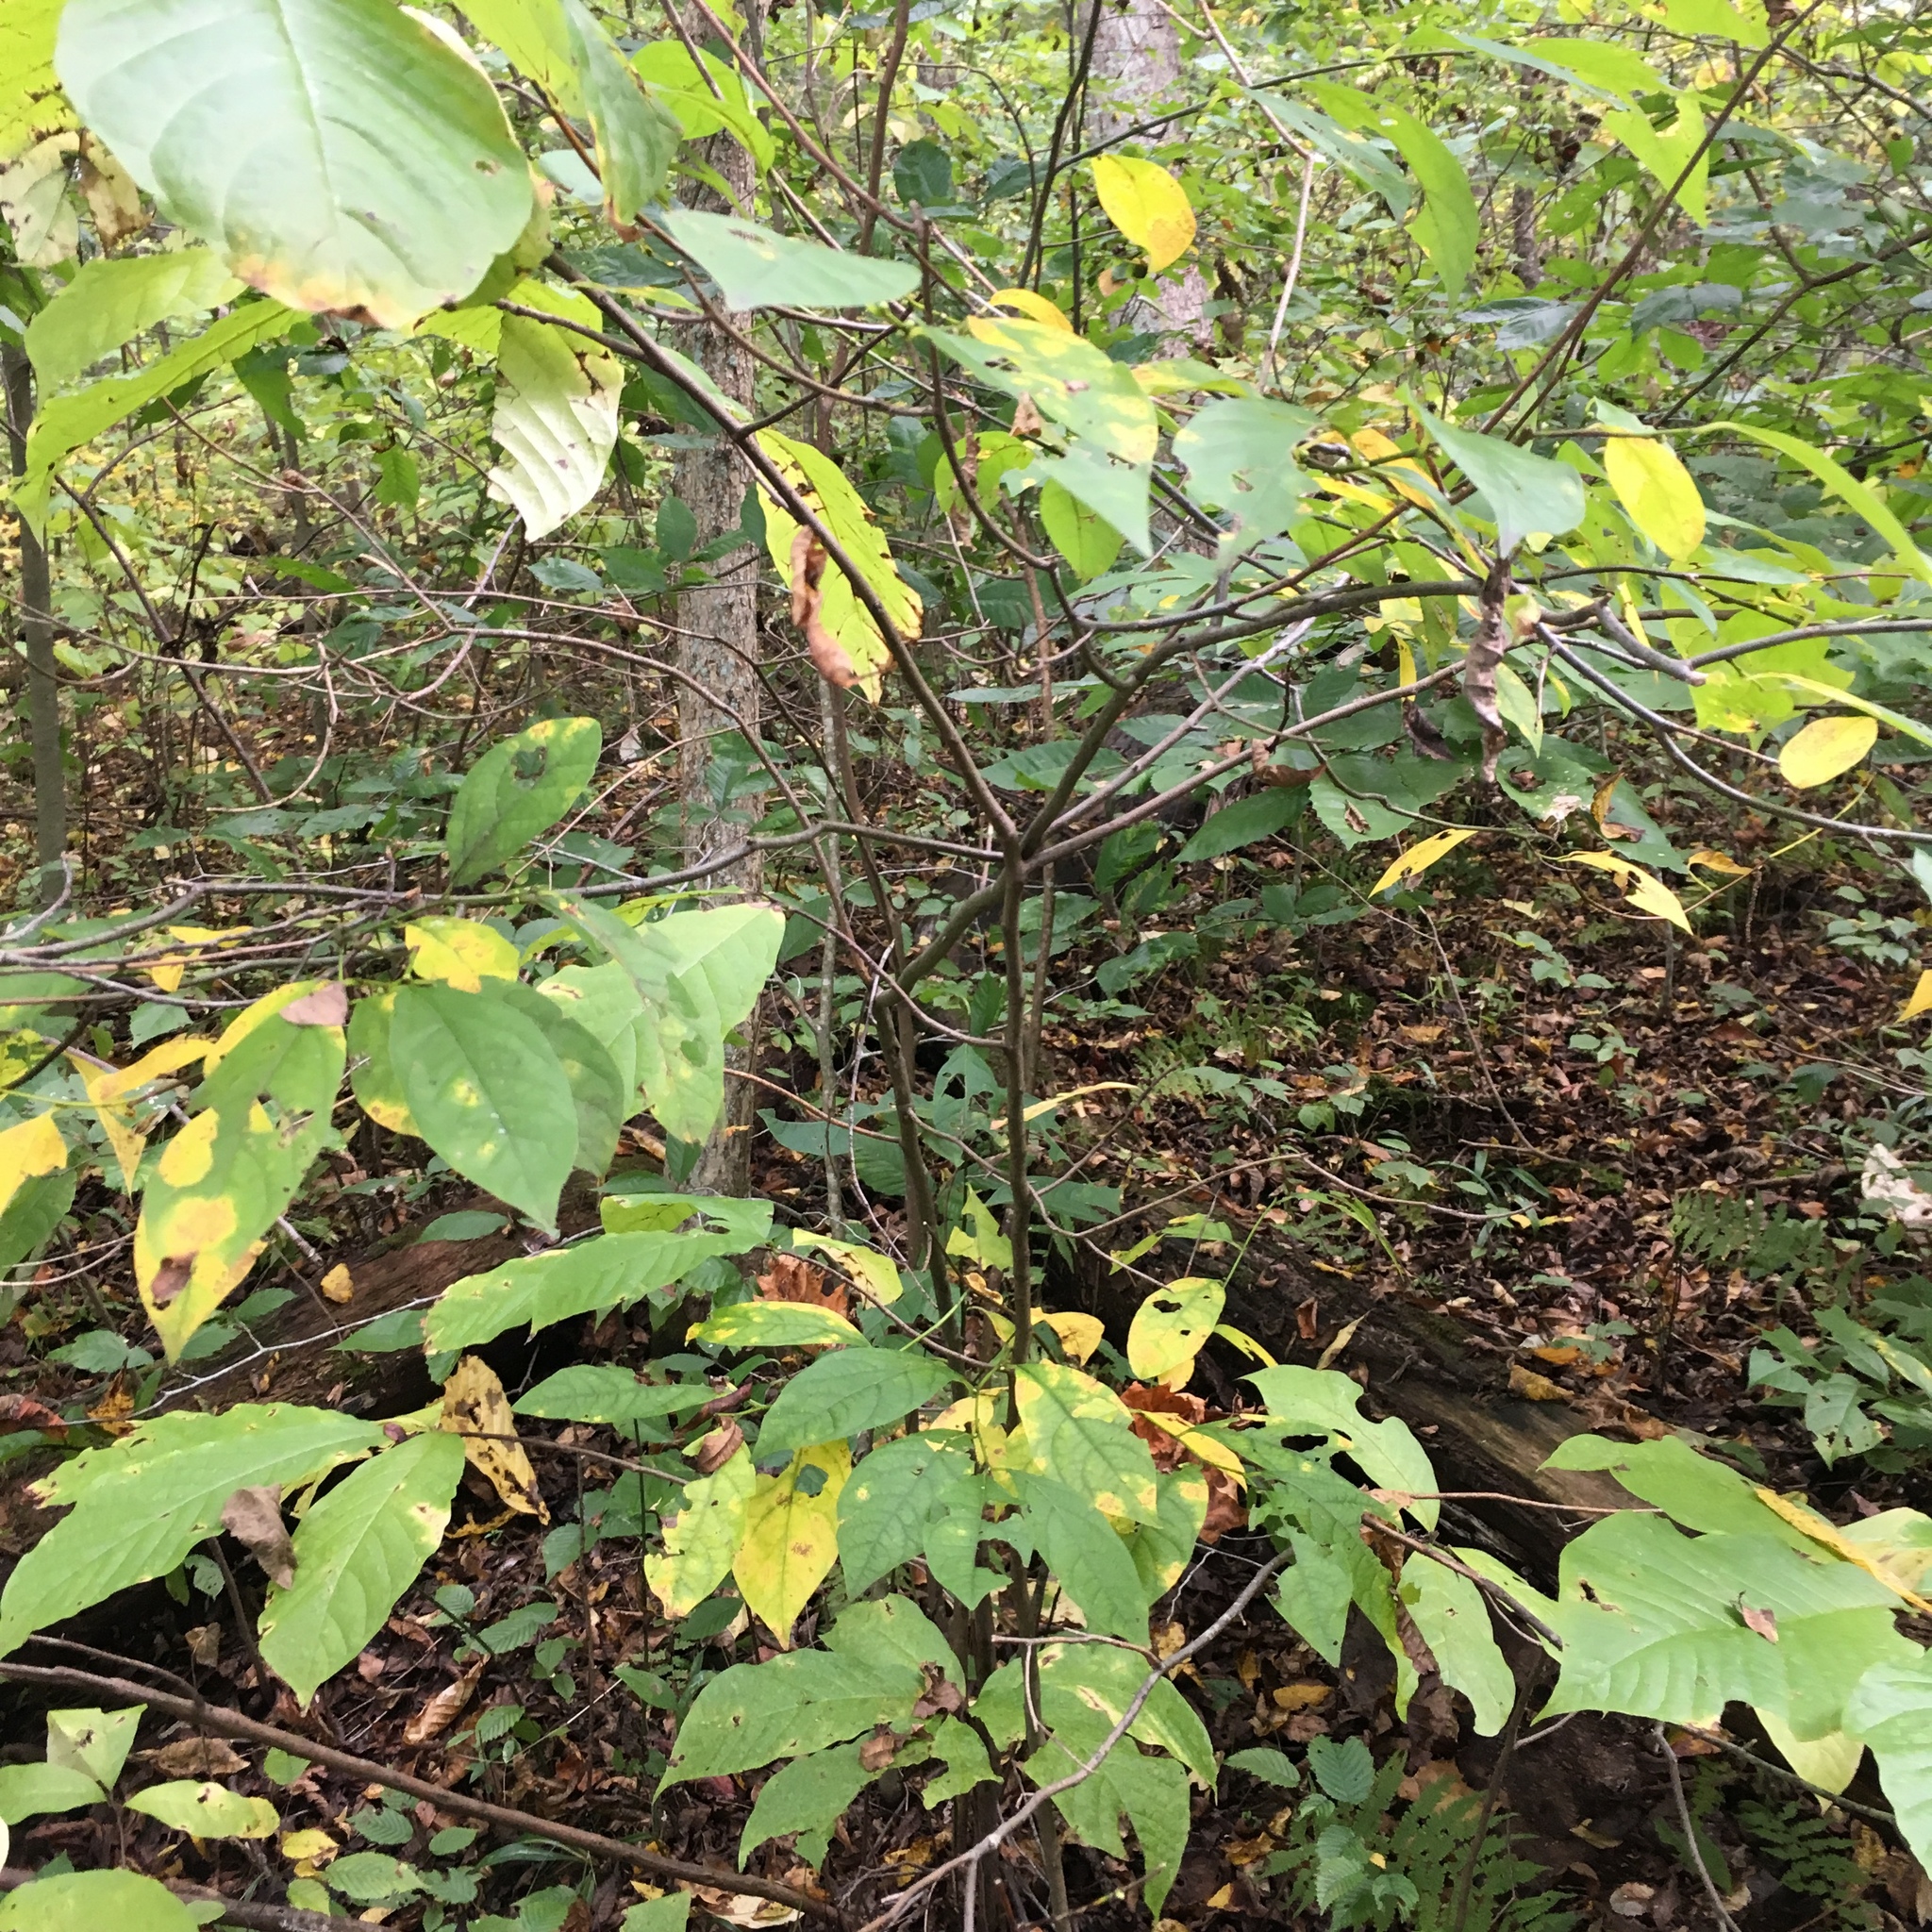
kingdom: Plantae
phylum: Tracheophyta
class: Magnoliopsida
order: Magnoliales
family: Annonaceae
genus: Asimina
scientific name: Asimina triloba
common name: Dog-banana
